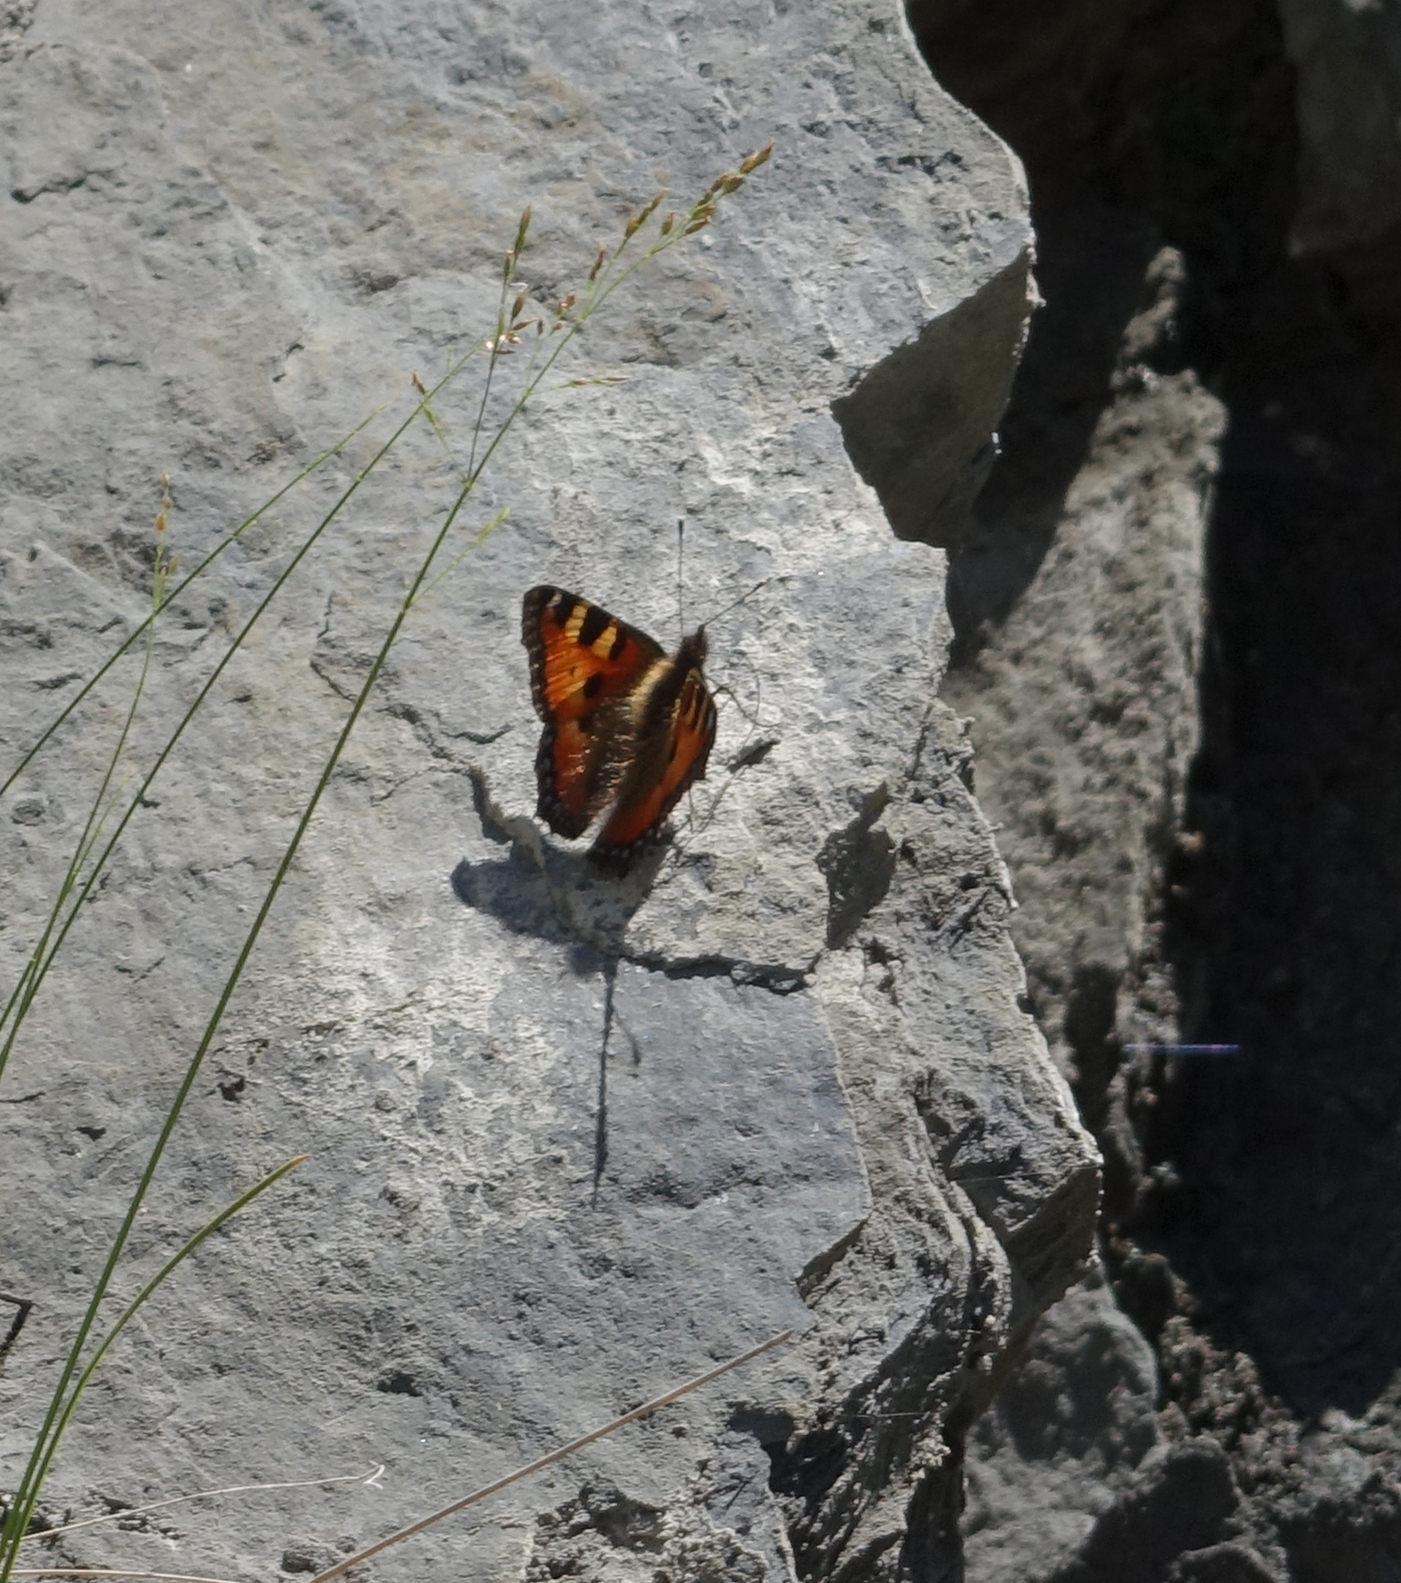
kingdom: Animalia
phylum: Arthropoda
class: Insecta
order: Lepidoptera
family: Nymphalidae
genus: Aglais
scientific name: Aglais urticae
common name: Small tortoiseshell
